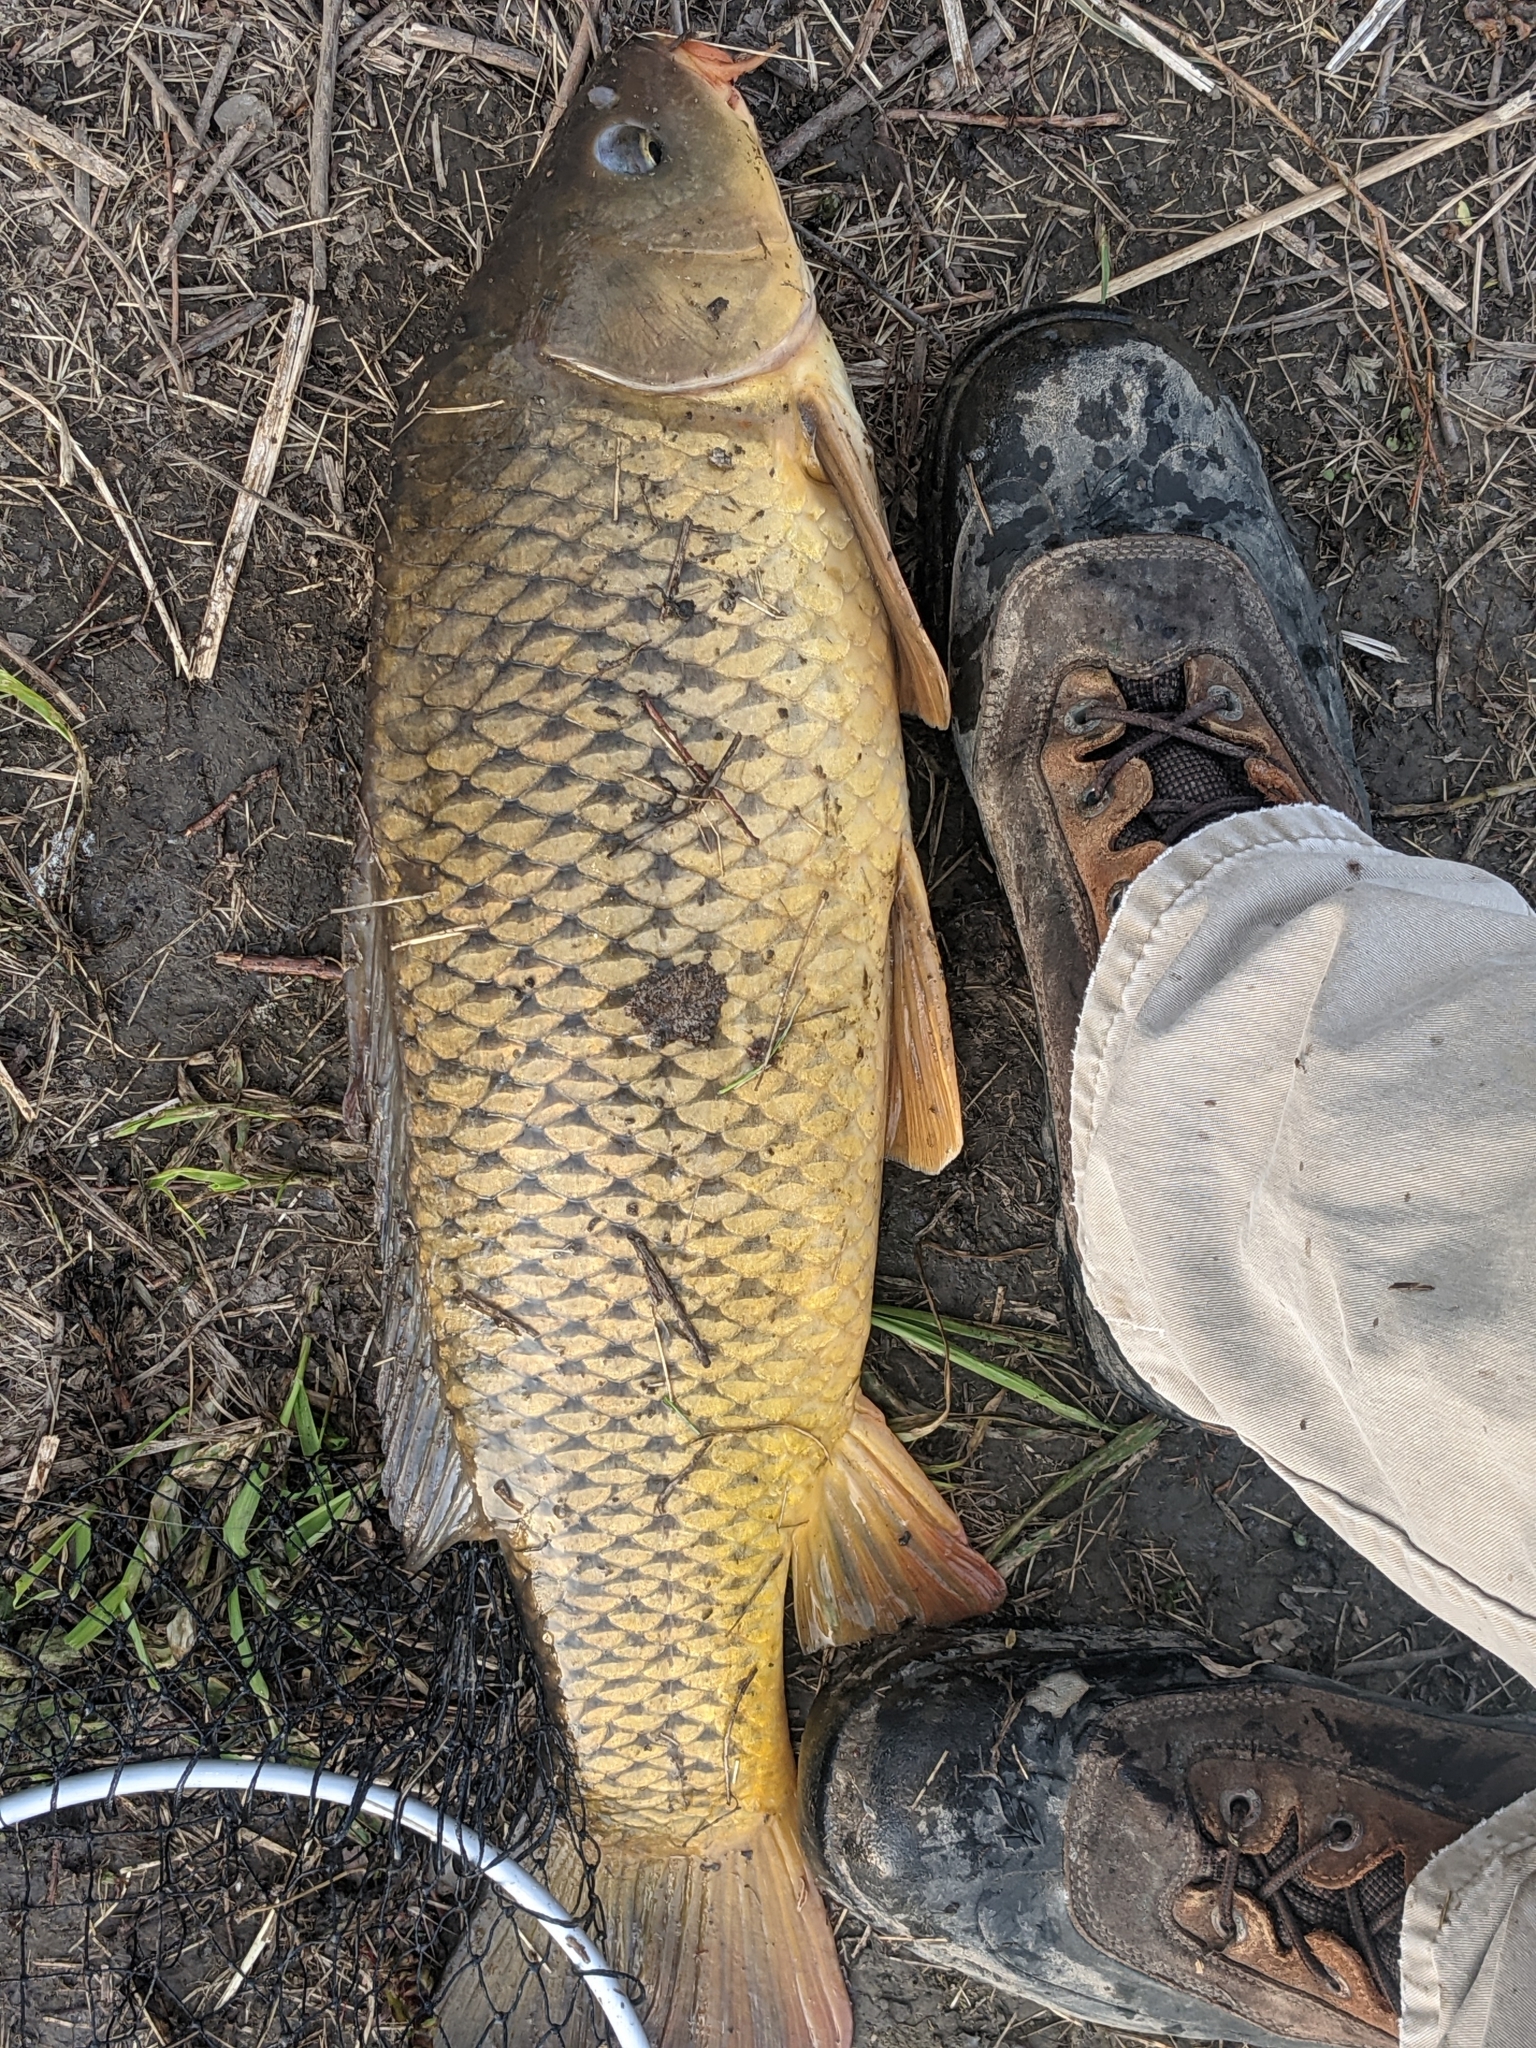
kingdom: Animalia
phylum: Chordata
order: Cypriniformes
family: Cyprinidae
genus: Cyprinus
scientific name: Cyprinus carpio
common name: Common carp
